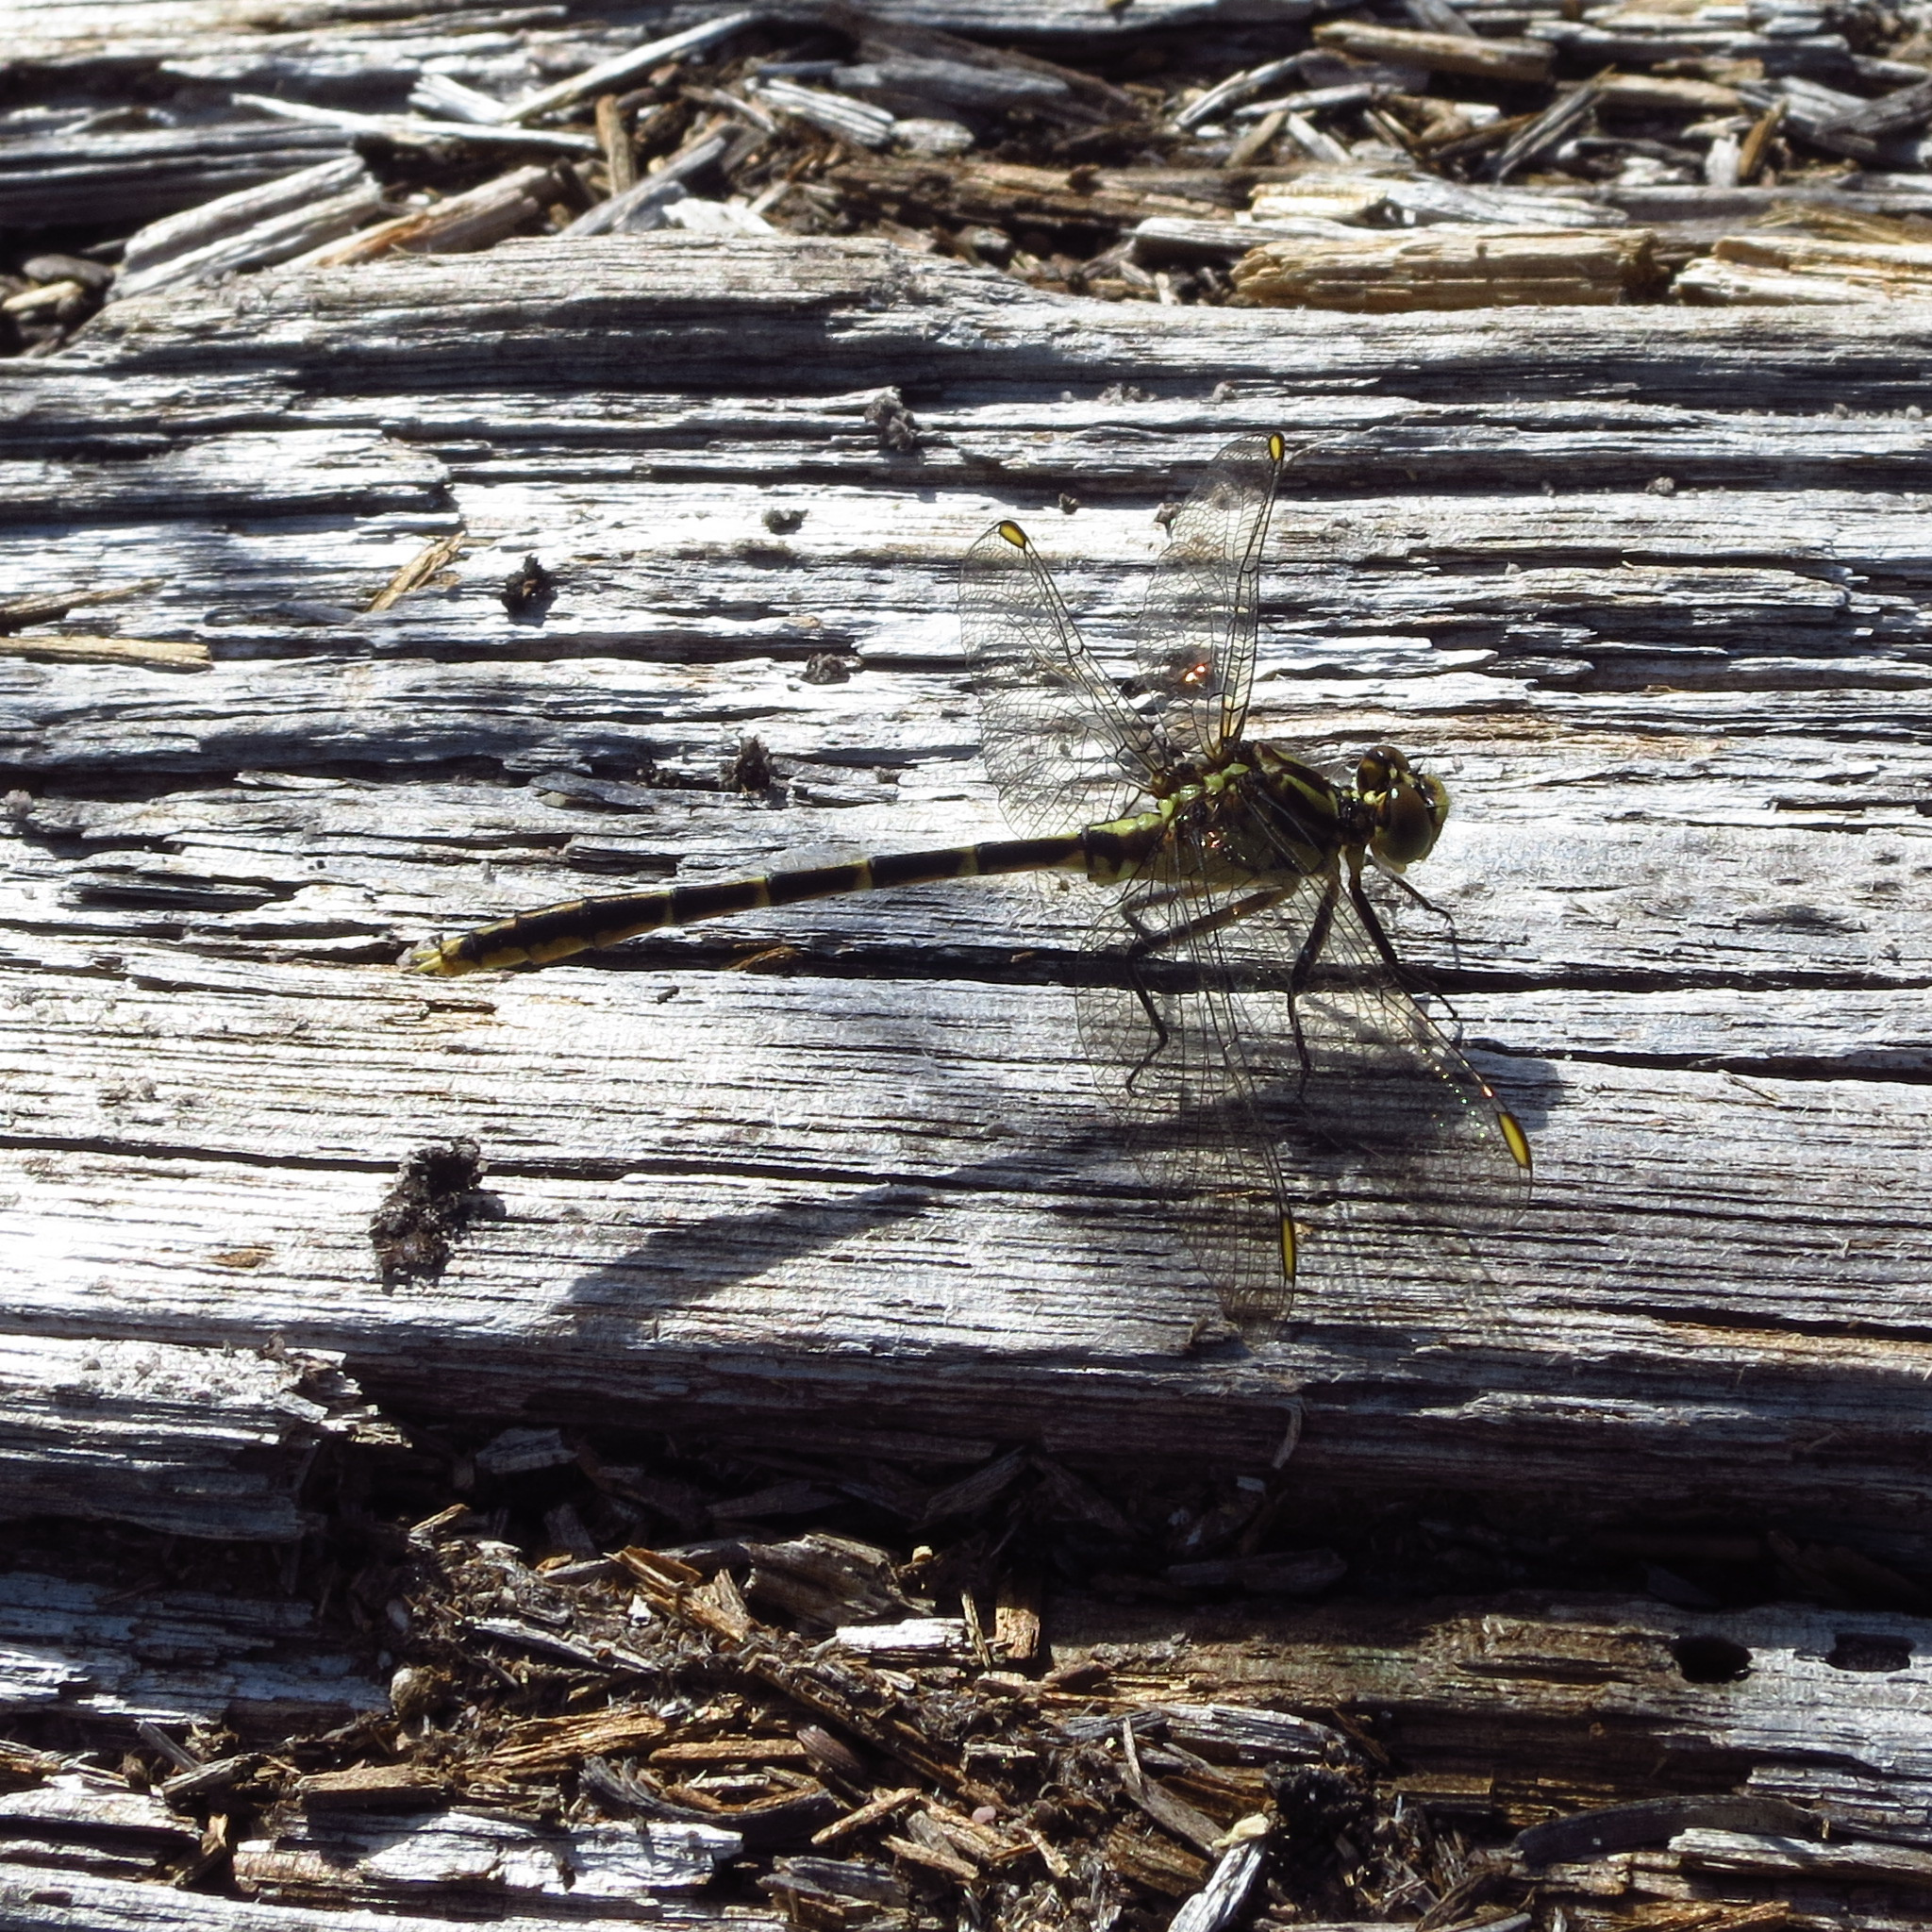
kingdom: Animalia
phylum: Arthropoda
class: Insecta
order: Odonata
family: Gomphidae
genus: Austrogomphus
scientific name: Austrogomphus guerini
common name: Yellow-striped hunter
